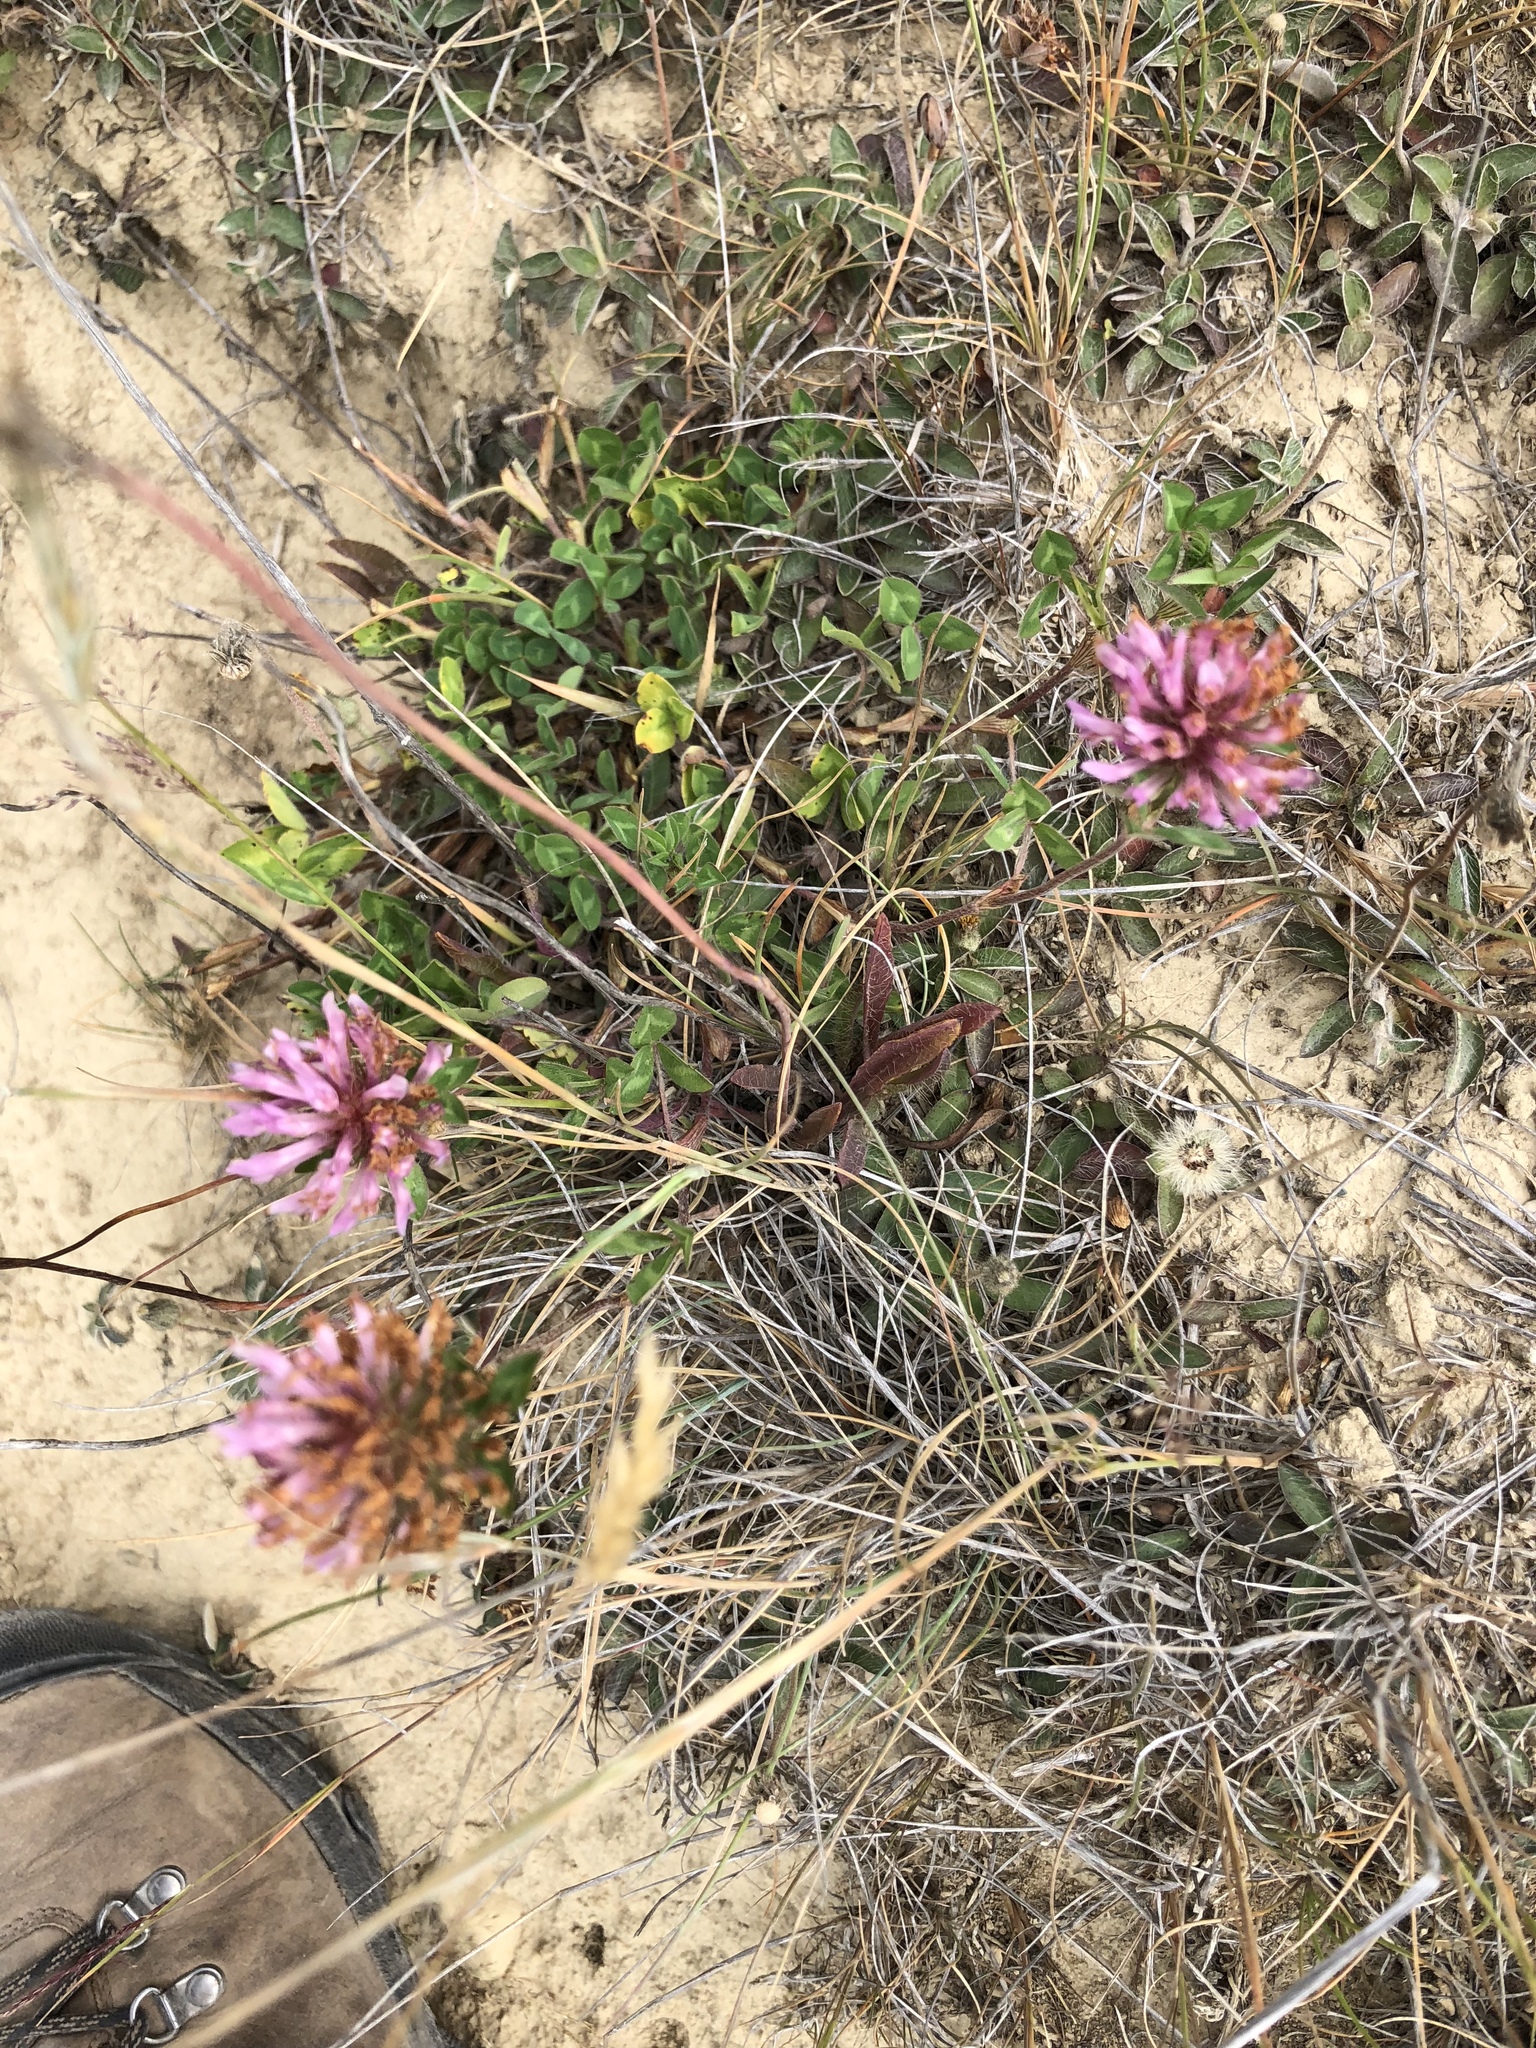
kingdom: Plantae
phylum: Tracheophyta
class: Magnoliopsida
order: Fabales
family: Fabaceae
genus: Trifolium
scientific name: Trifolium pratense
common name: Red clover
